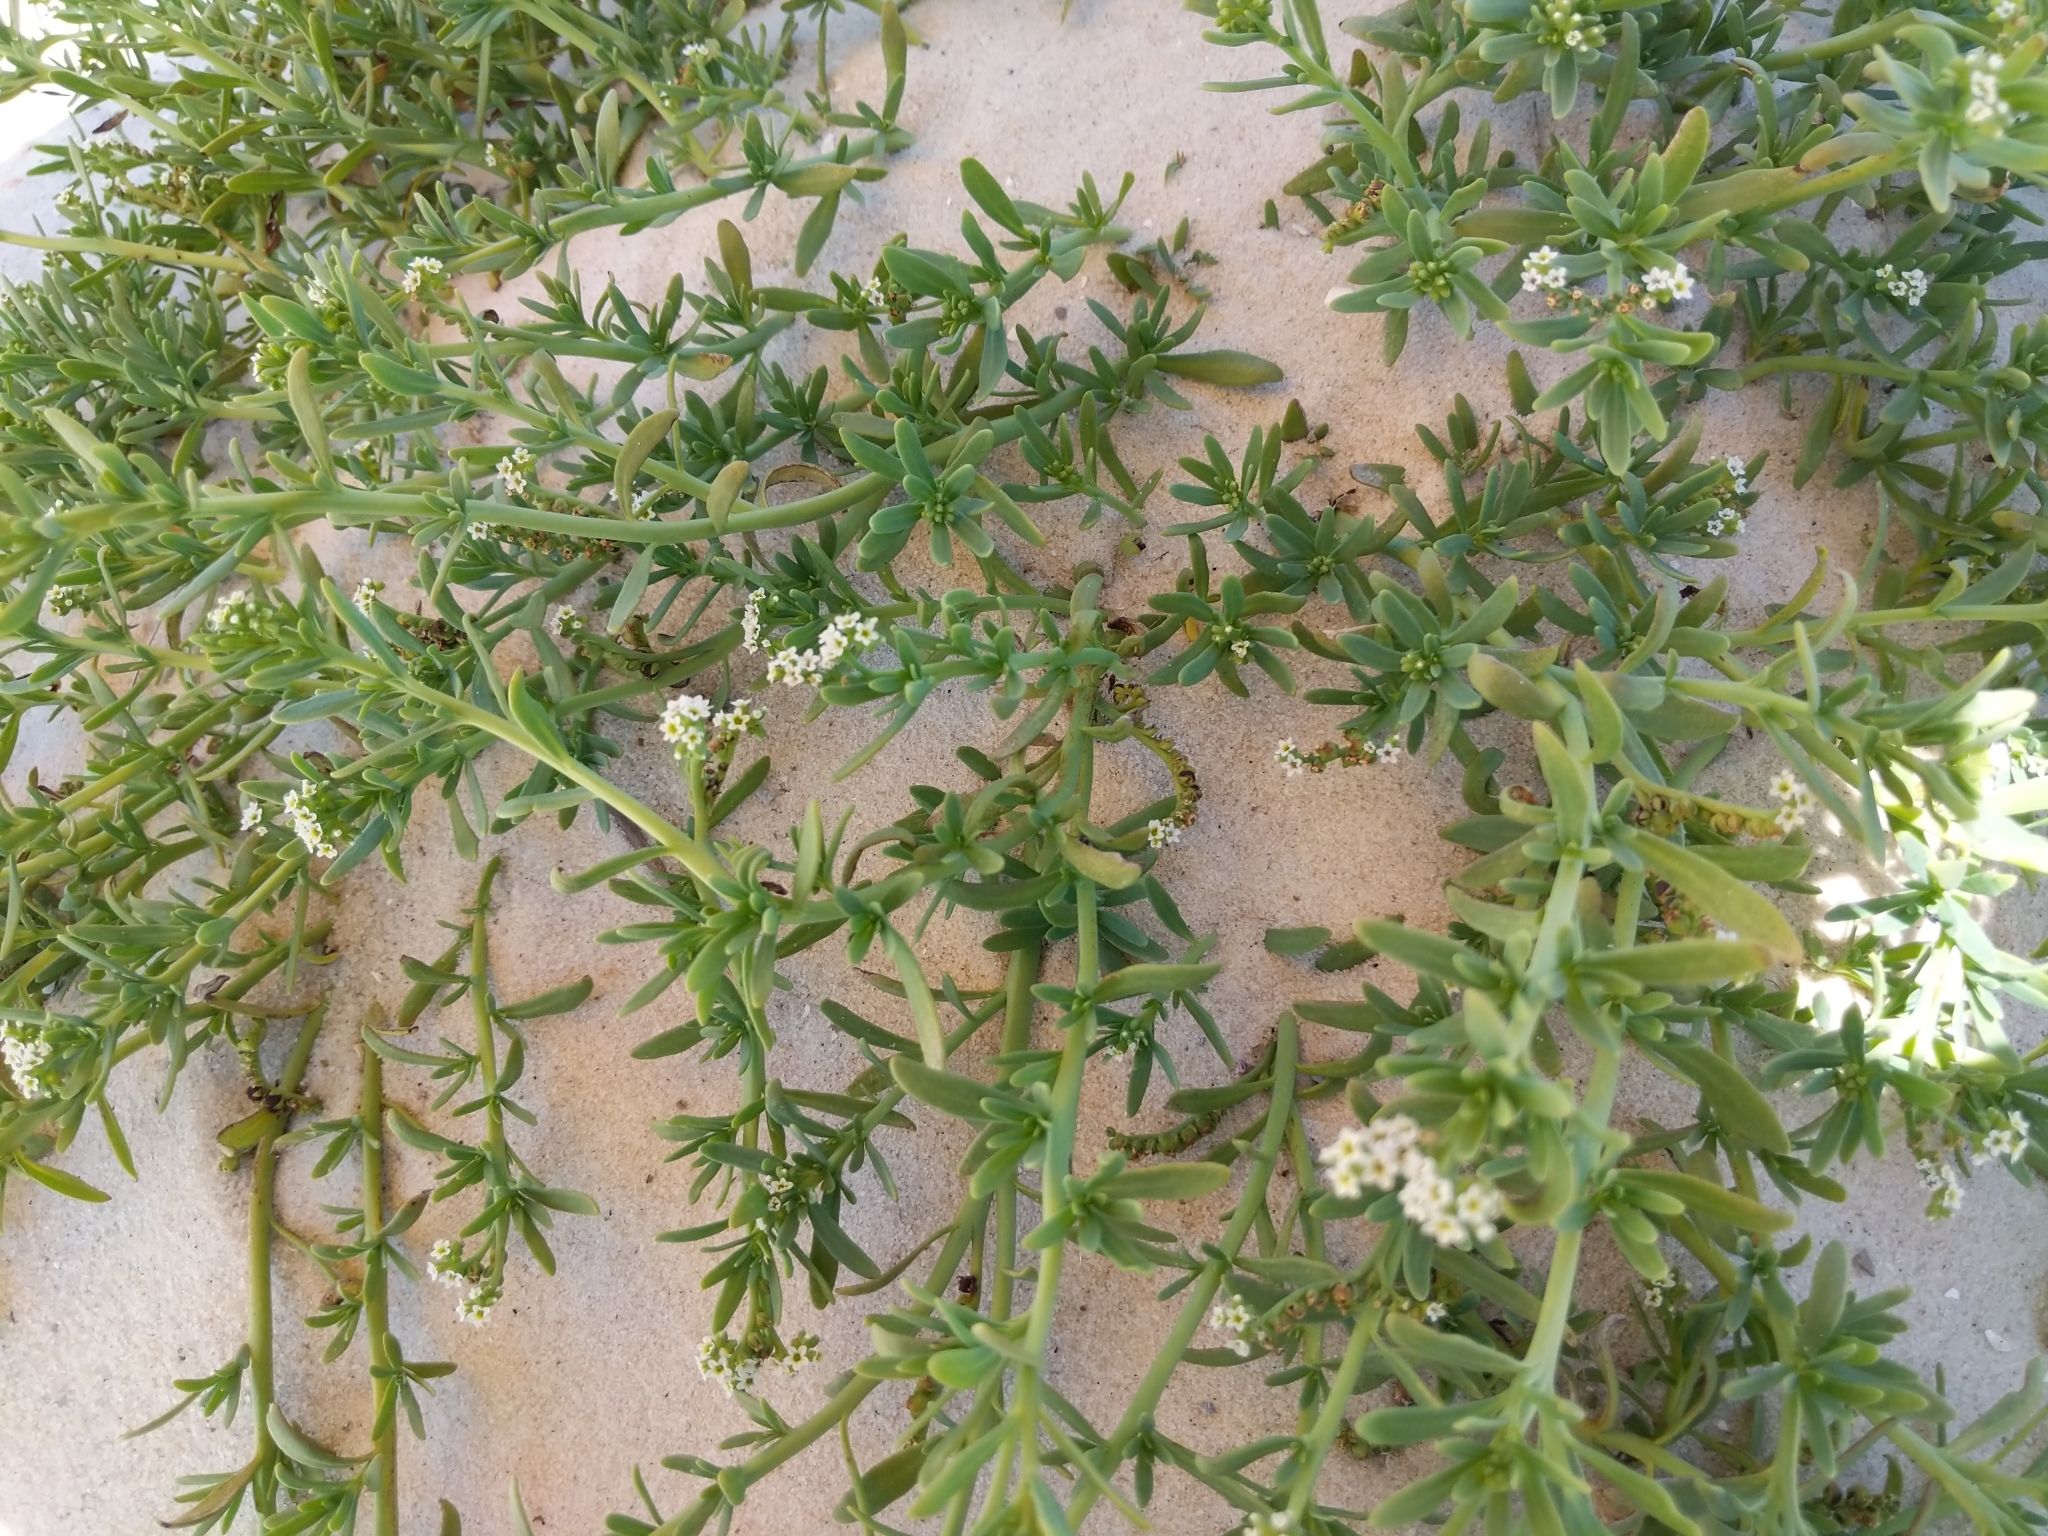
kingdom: Plantae
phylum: Tracheophyta
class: Magnoliopsida
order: Boraginales
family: Heliotropiaceae
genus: Heliotropium
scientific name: Heliotropium curassavicum
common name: Seaside heliotrope
